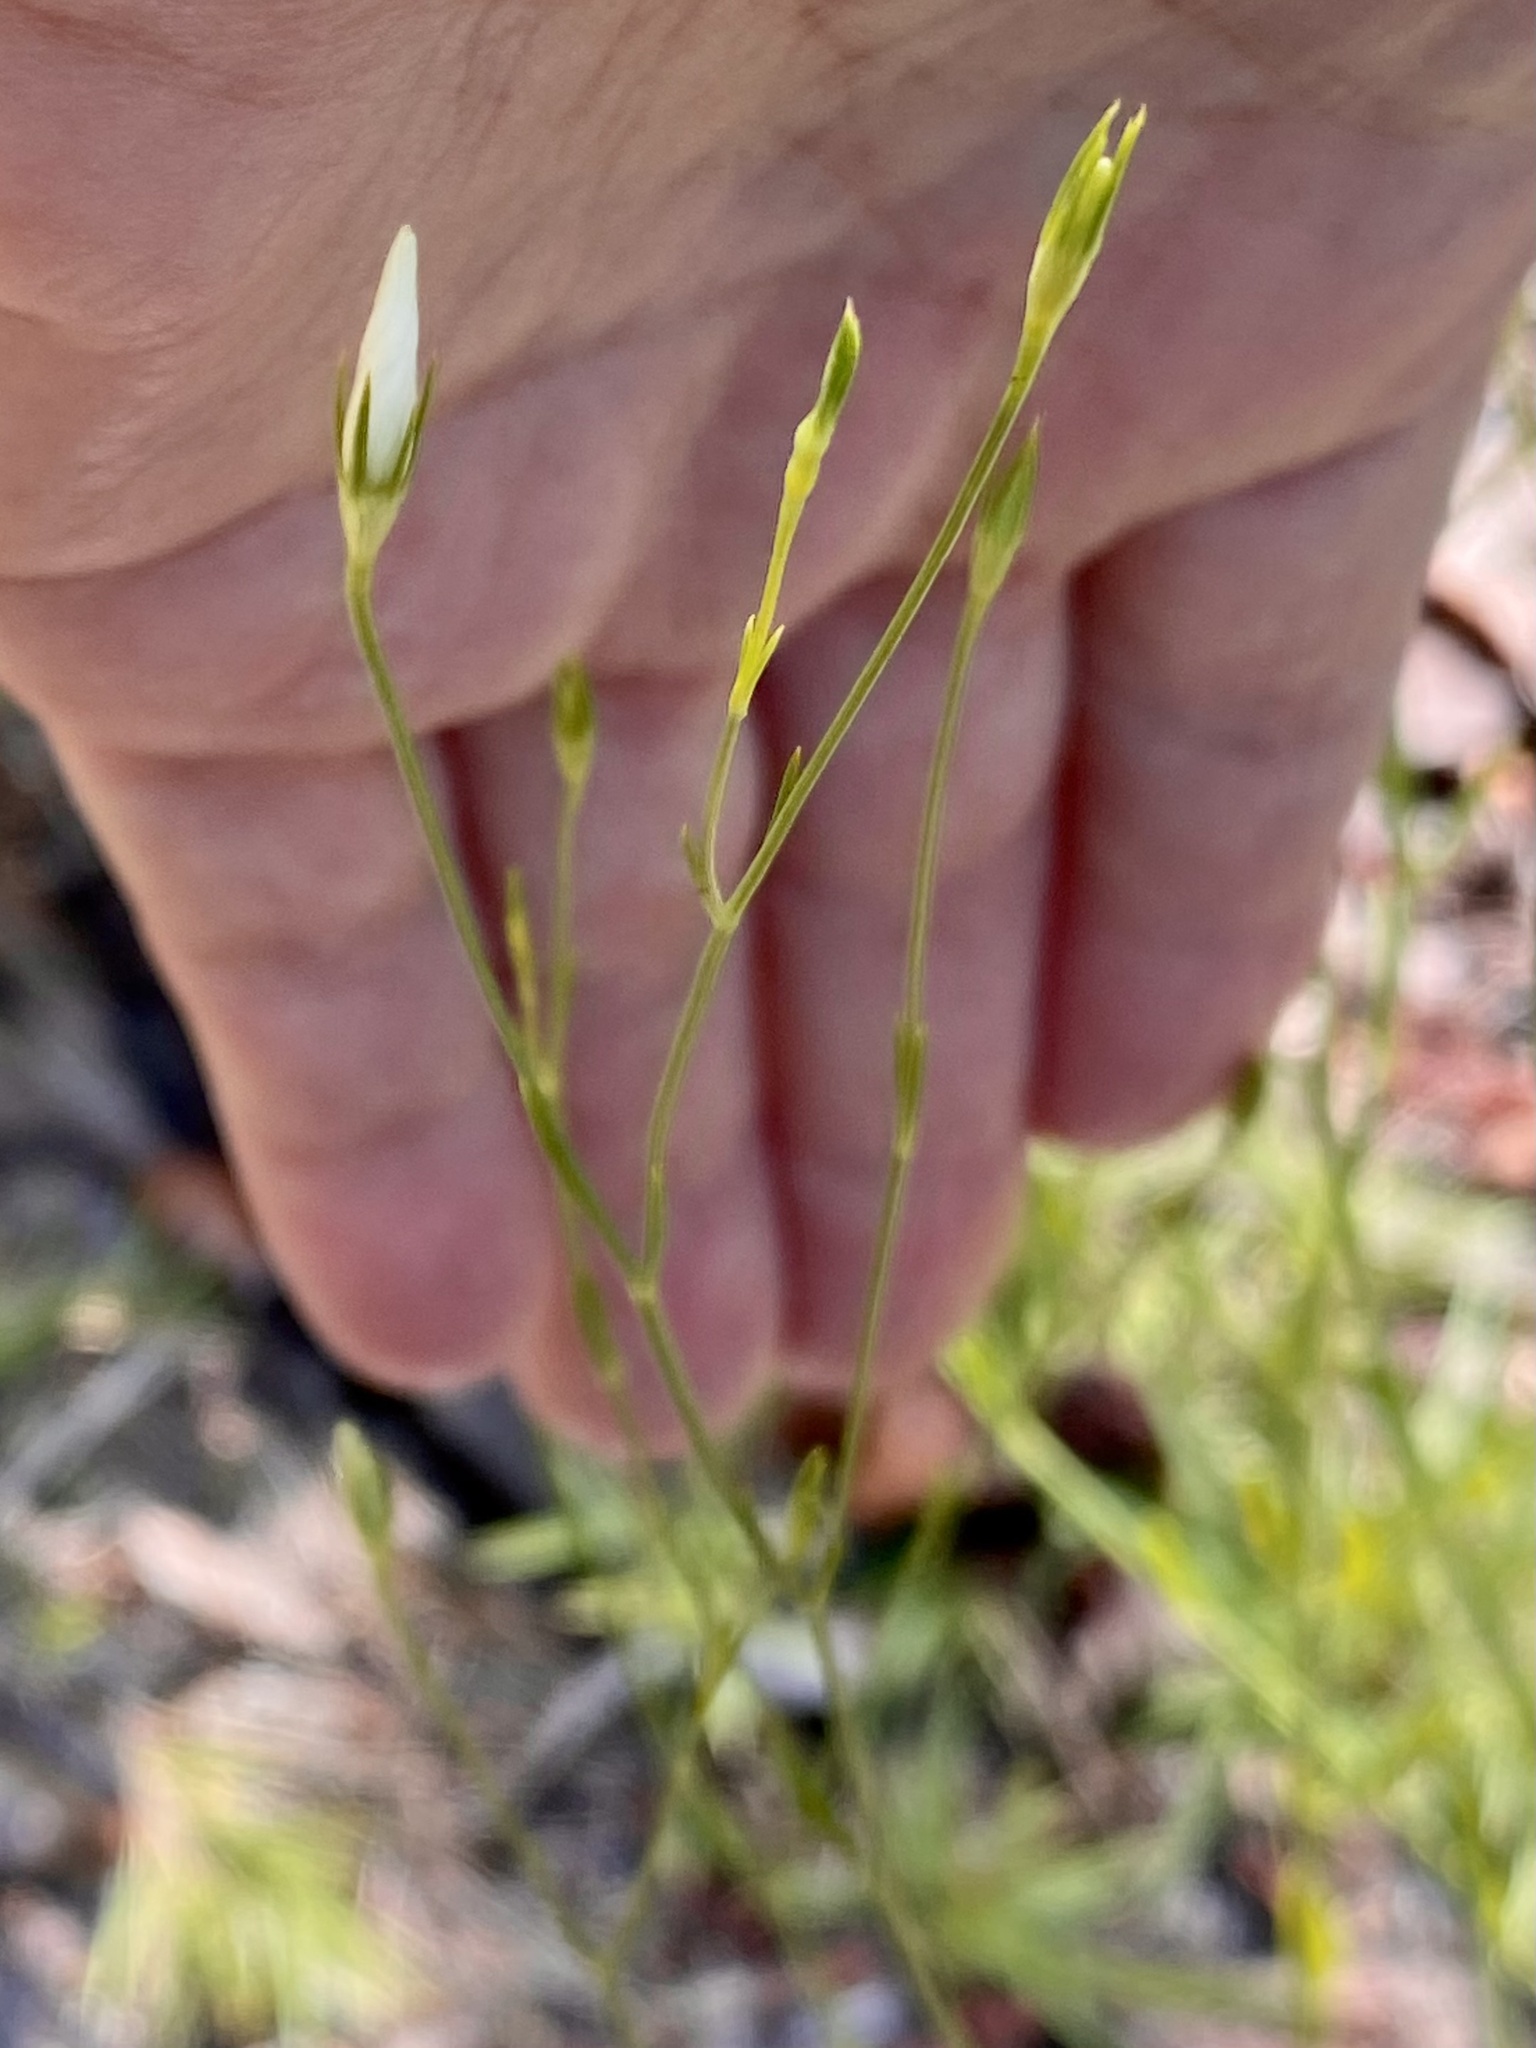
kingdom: Plantae
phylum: Tracheophyta
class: Magnoliopsida
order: Gentianales
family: Gentianaceae
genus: Sabatia
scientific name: Sabatia brevifolia
